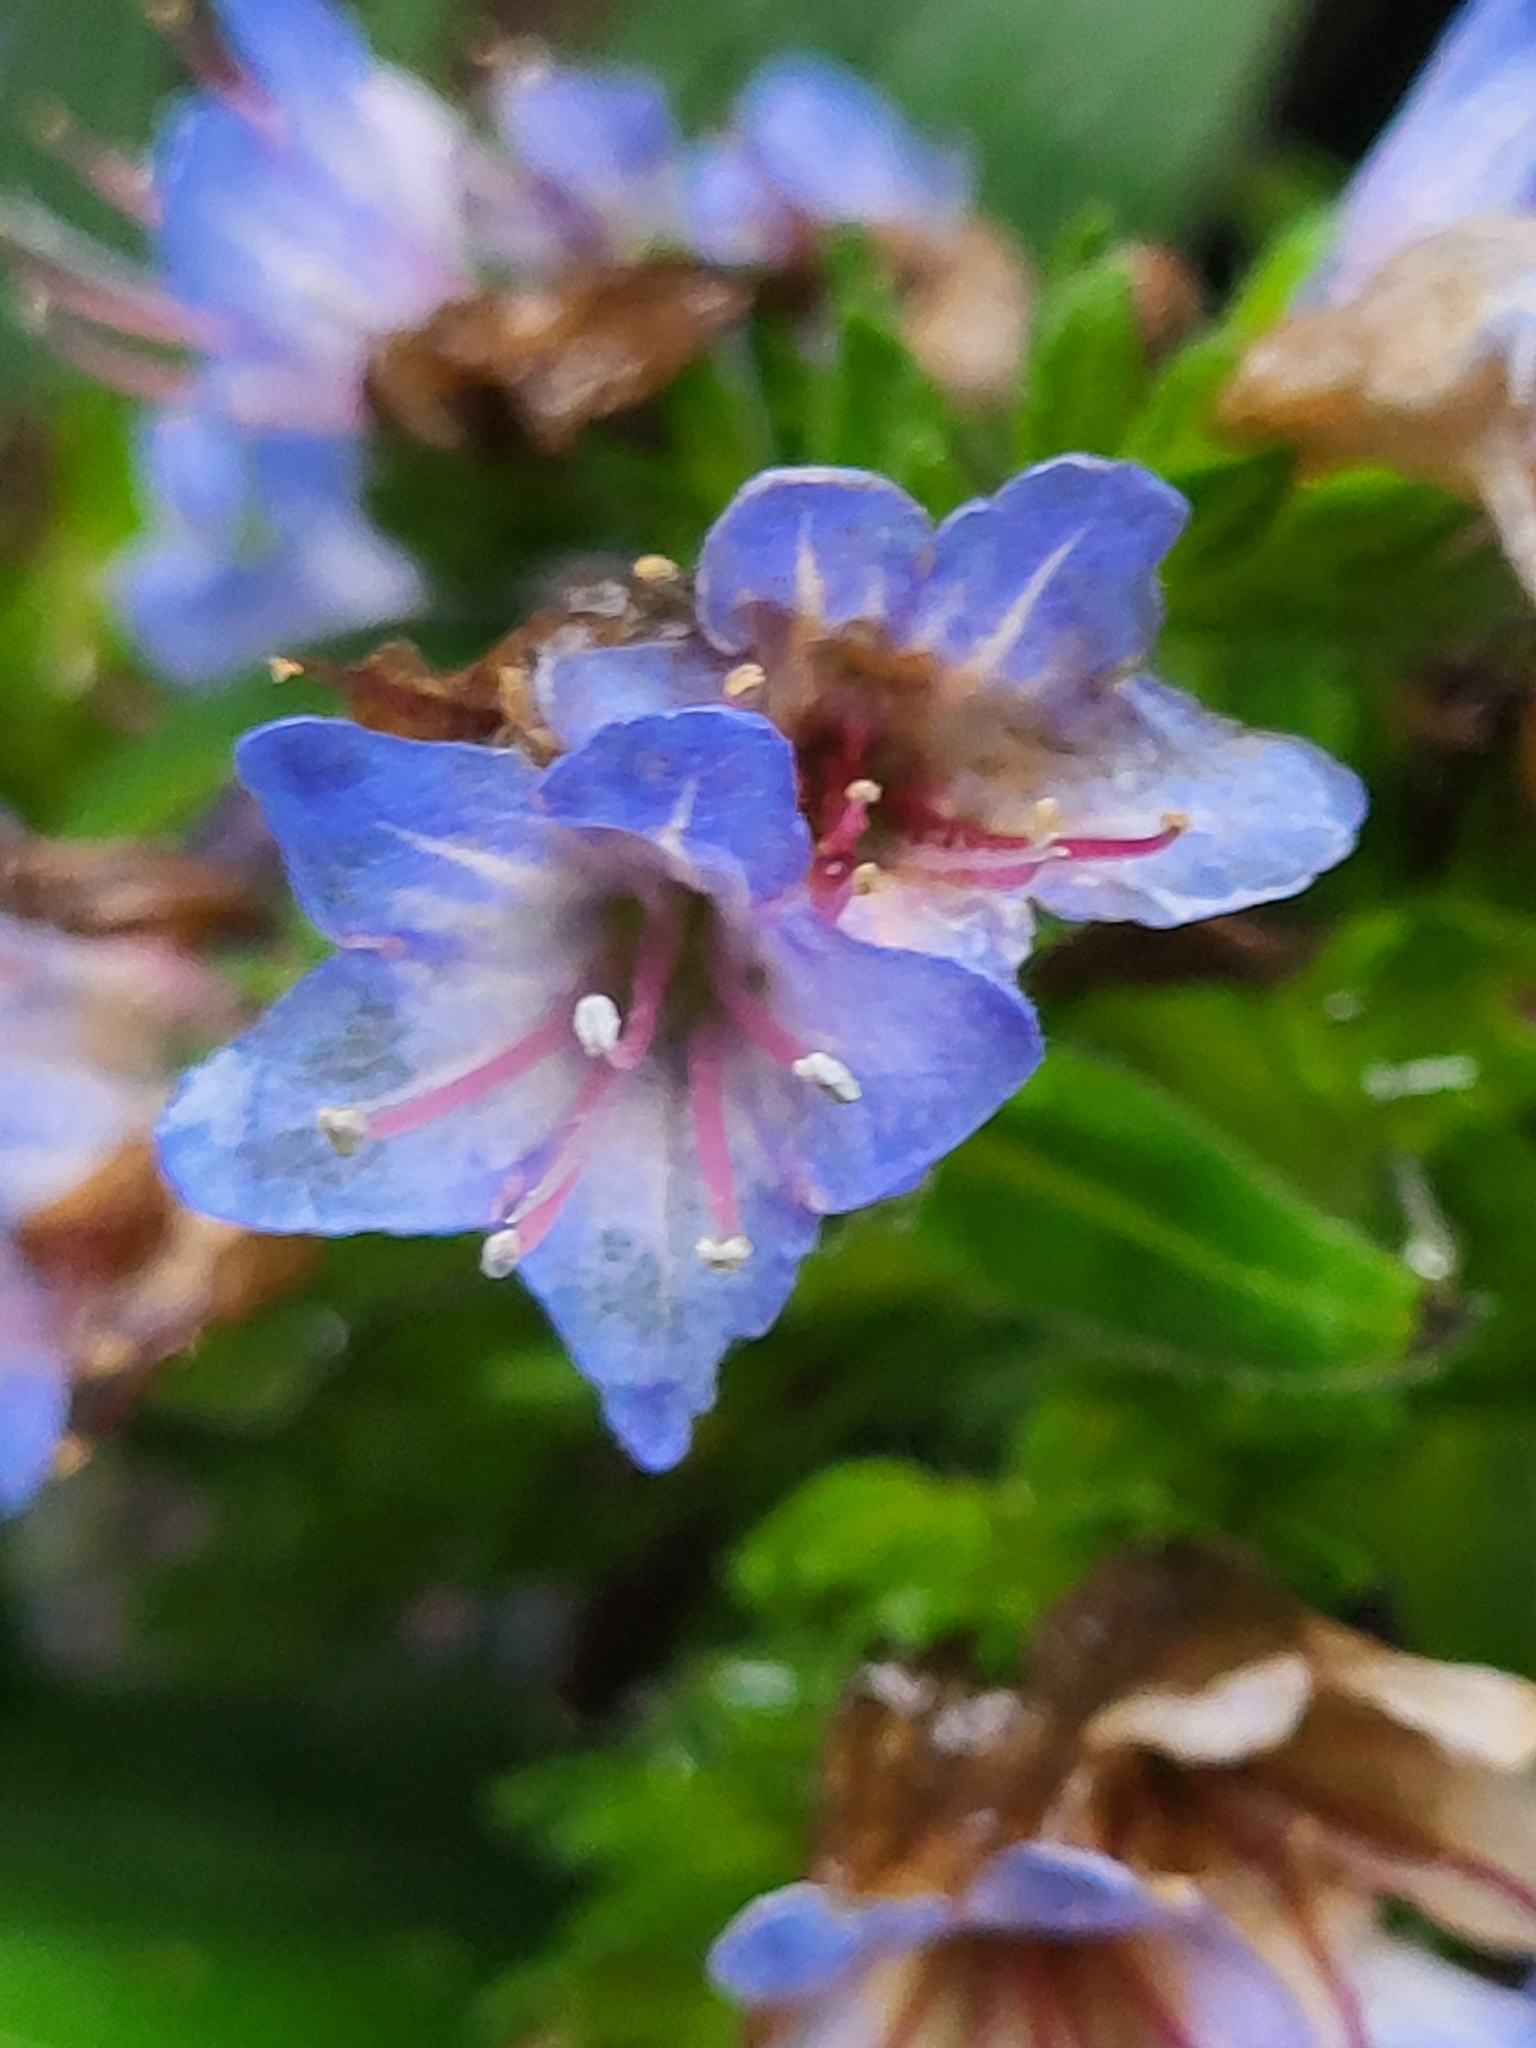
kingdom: Plantae
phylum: Tracheophyta
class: Magnoliopsida
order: Boraginales
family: Boraginaceae
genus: Echium
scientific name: Echium acanthocarpum
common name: Blue bugloss
